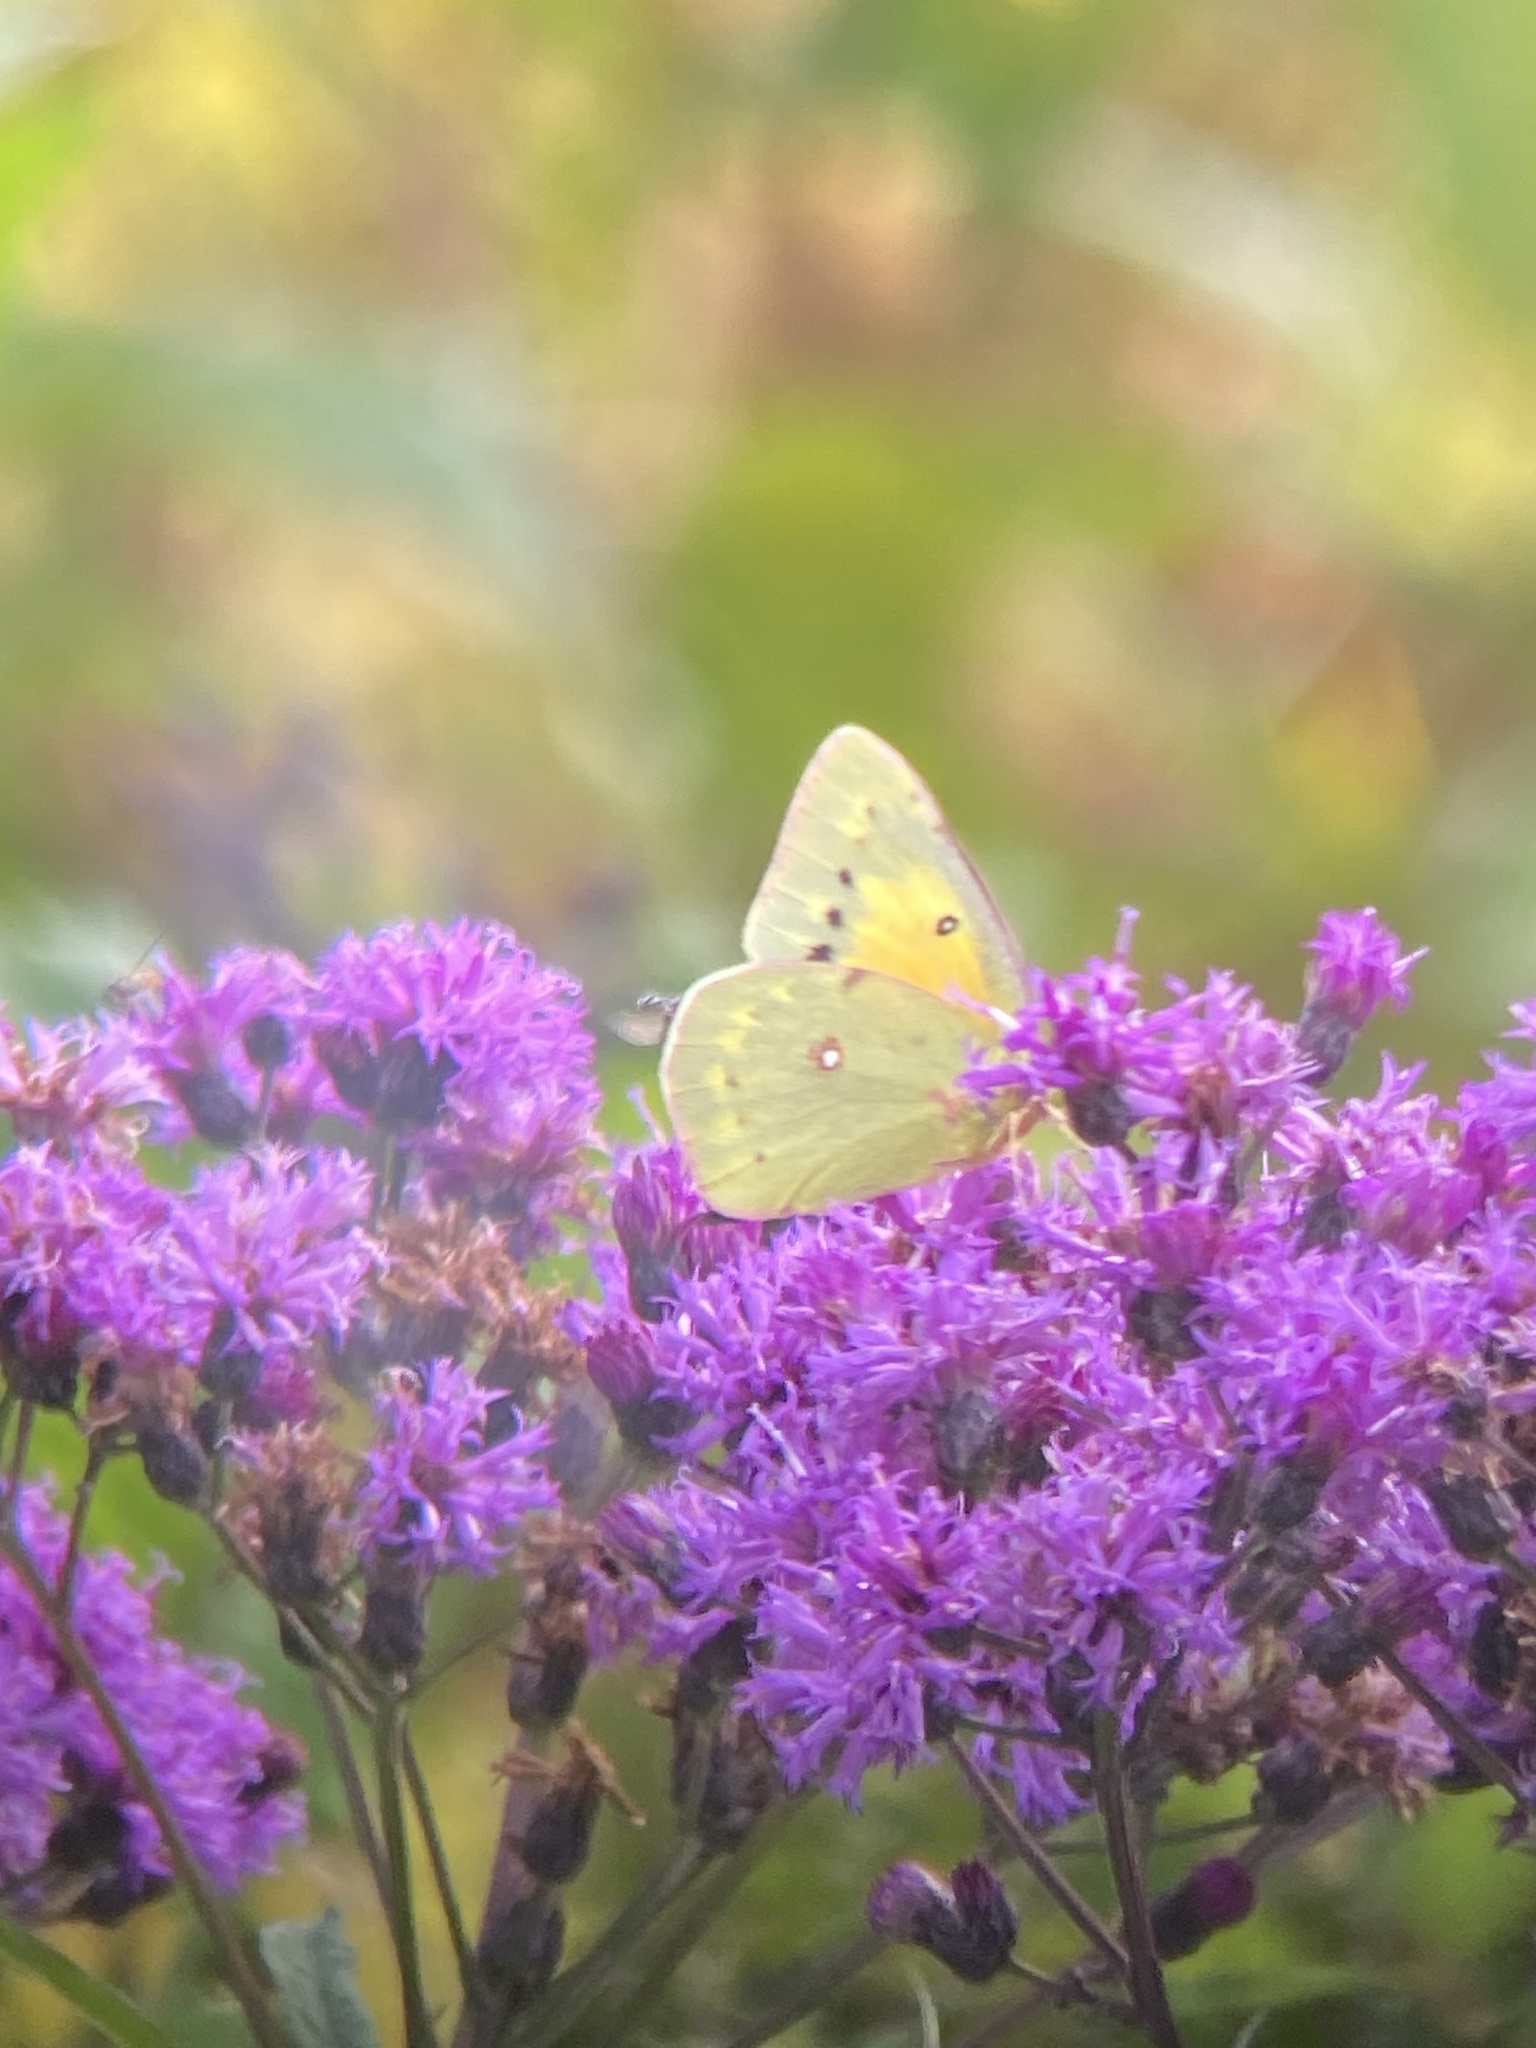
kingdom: Animalia
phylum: Arthropoda
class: Insecta
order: Lepidoptera
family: Pieridae
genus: Colias
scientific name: Colias eurytheme
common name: Alfalfa butterfly
